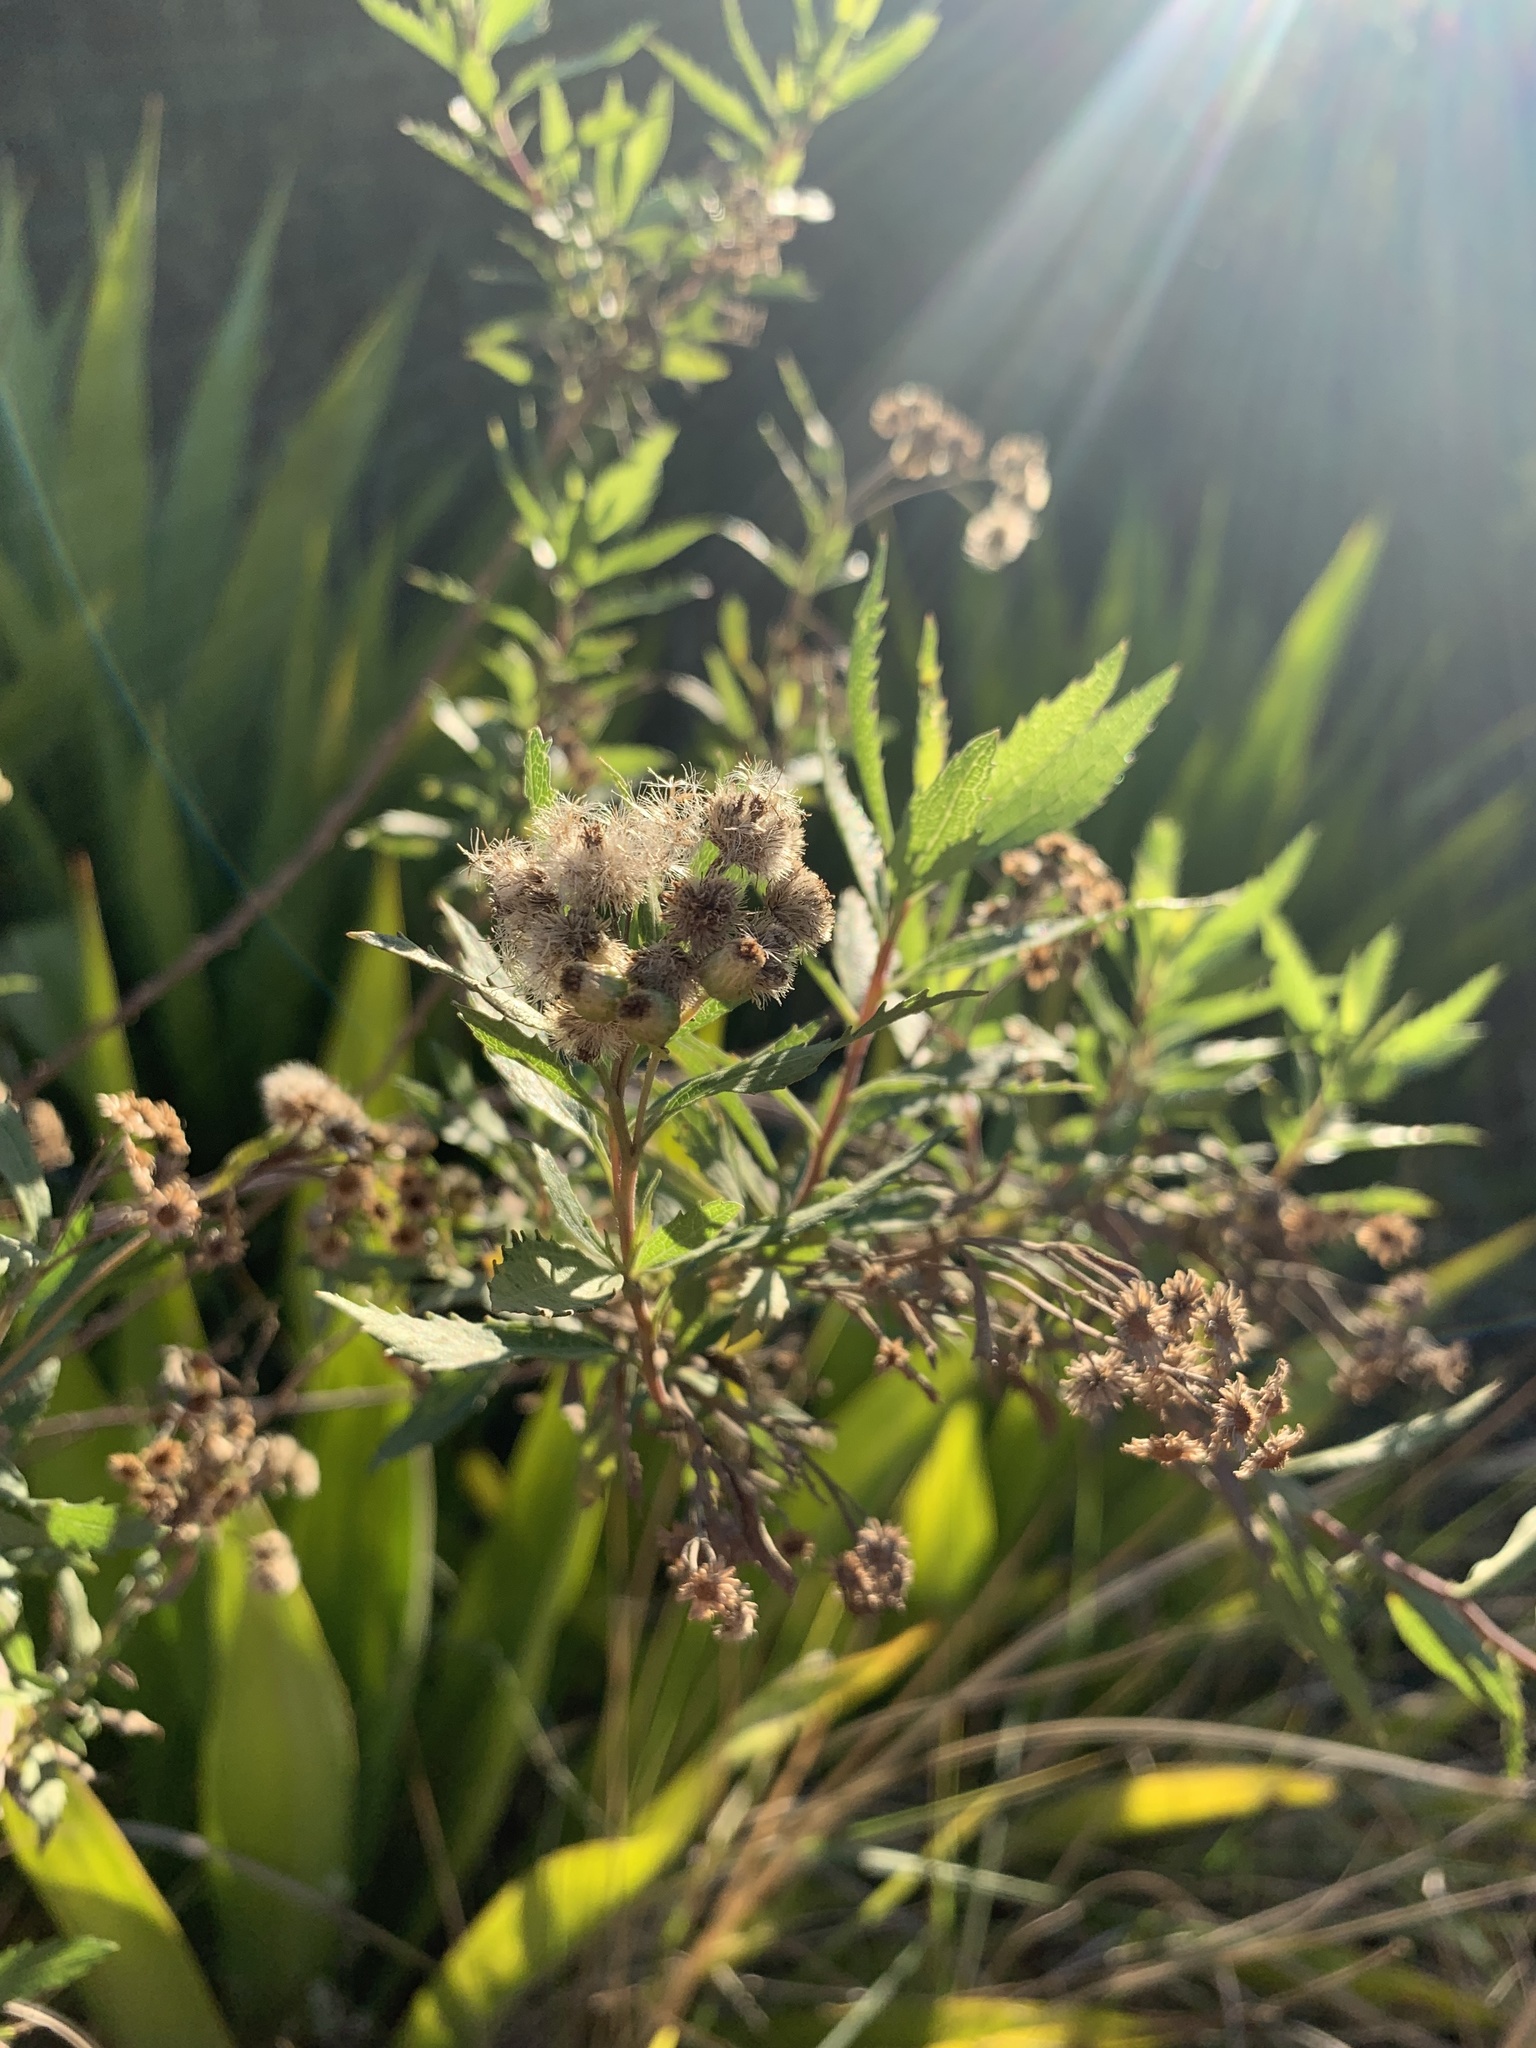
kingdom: Plantae
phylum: Tracheophyta
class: Magnoliopsida
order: Asterales
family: Asteraceae
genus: Nidorella
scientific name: Nidorella ivifolia
